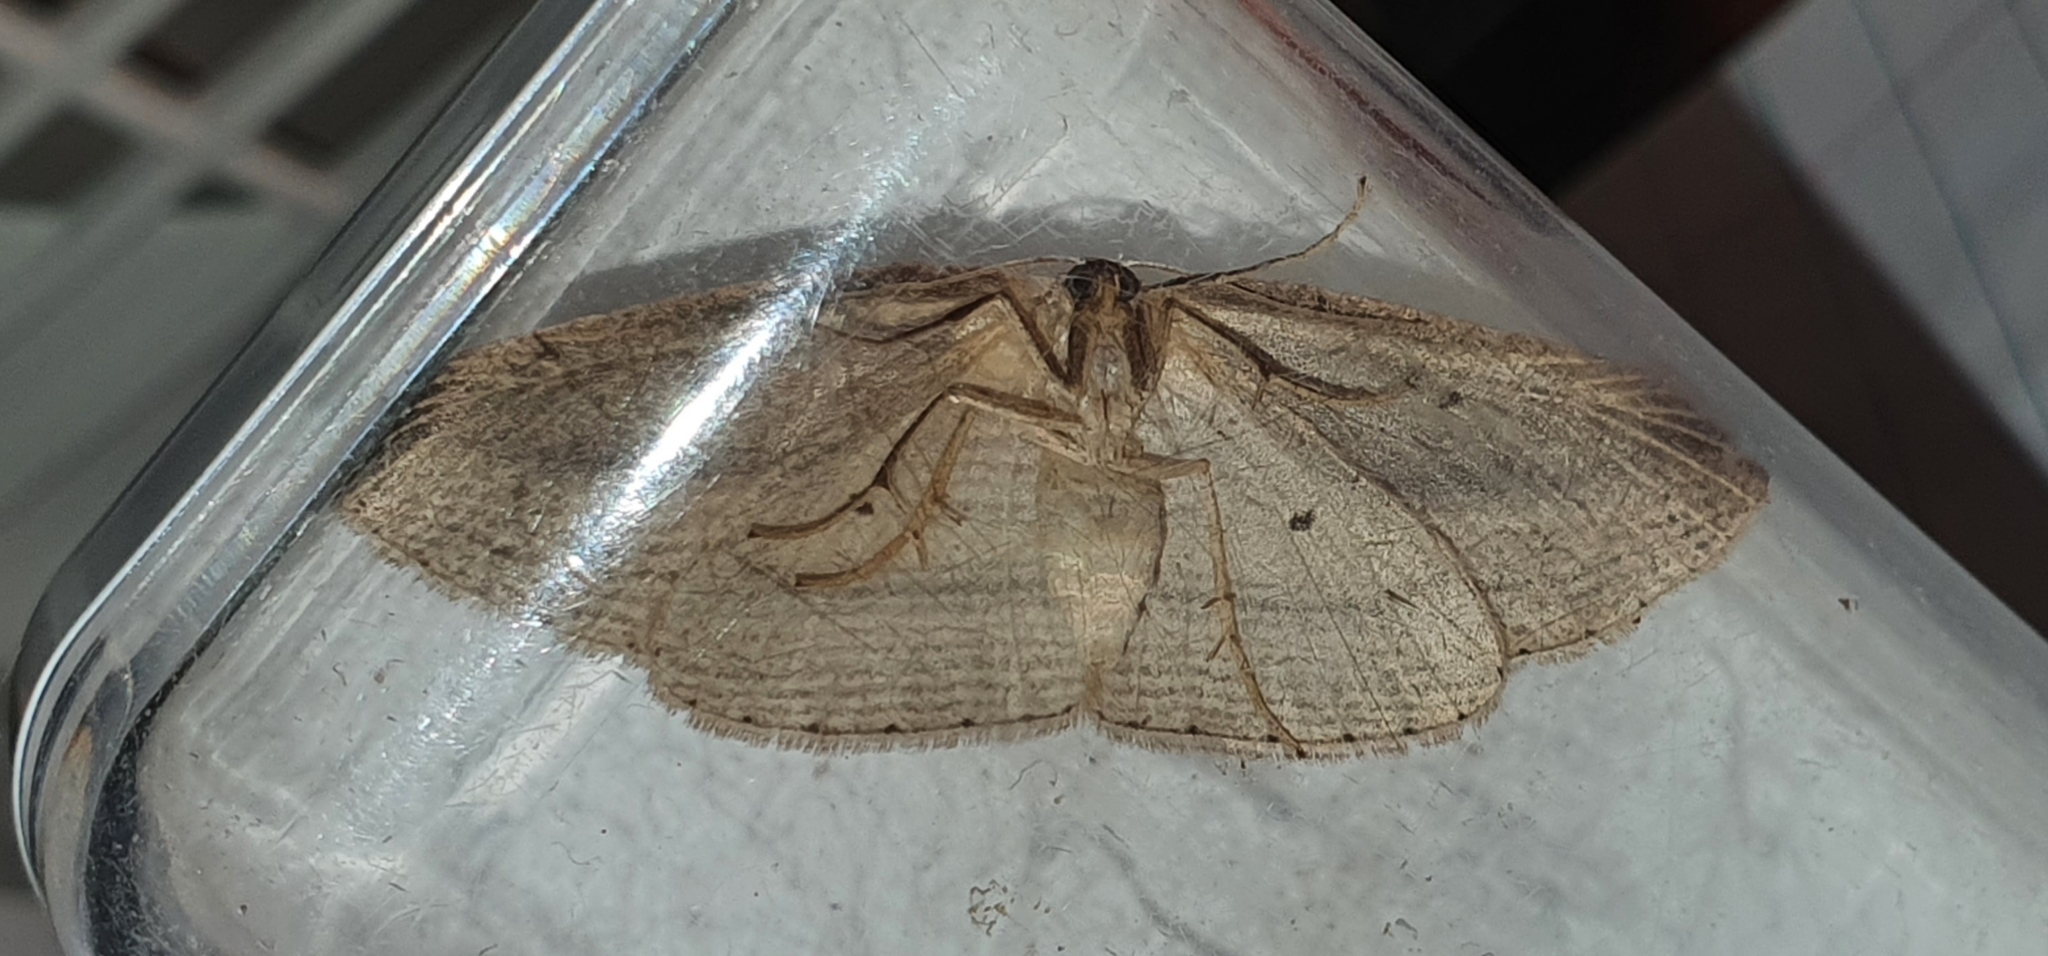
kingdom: Animalia
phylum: Arthropoda
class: Insecta
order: Lepidoptera
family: Geometridae
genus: Epiphryne
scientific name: Epiphryne verriculata
